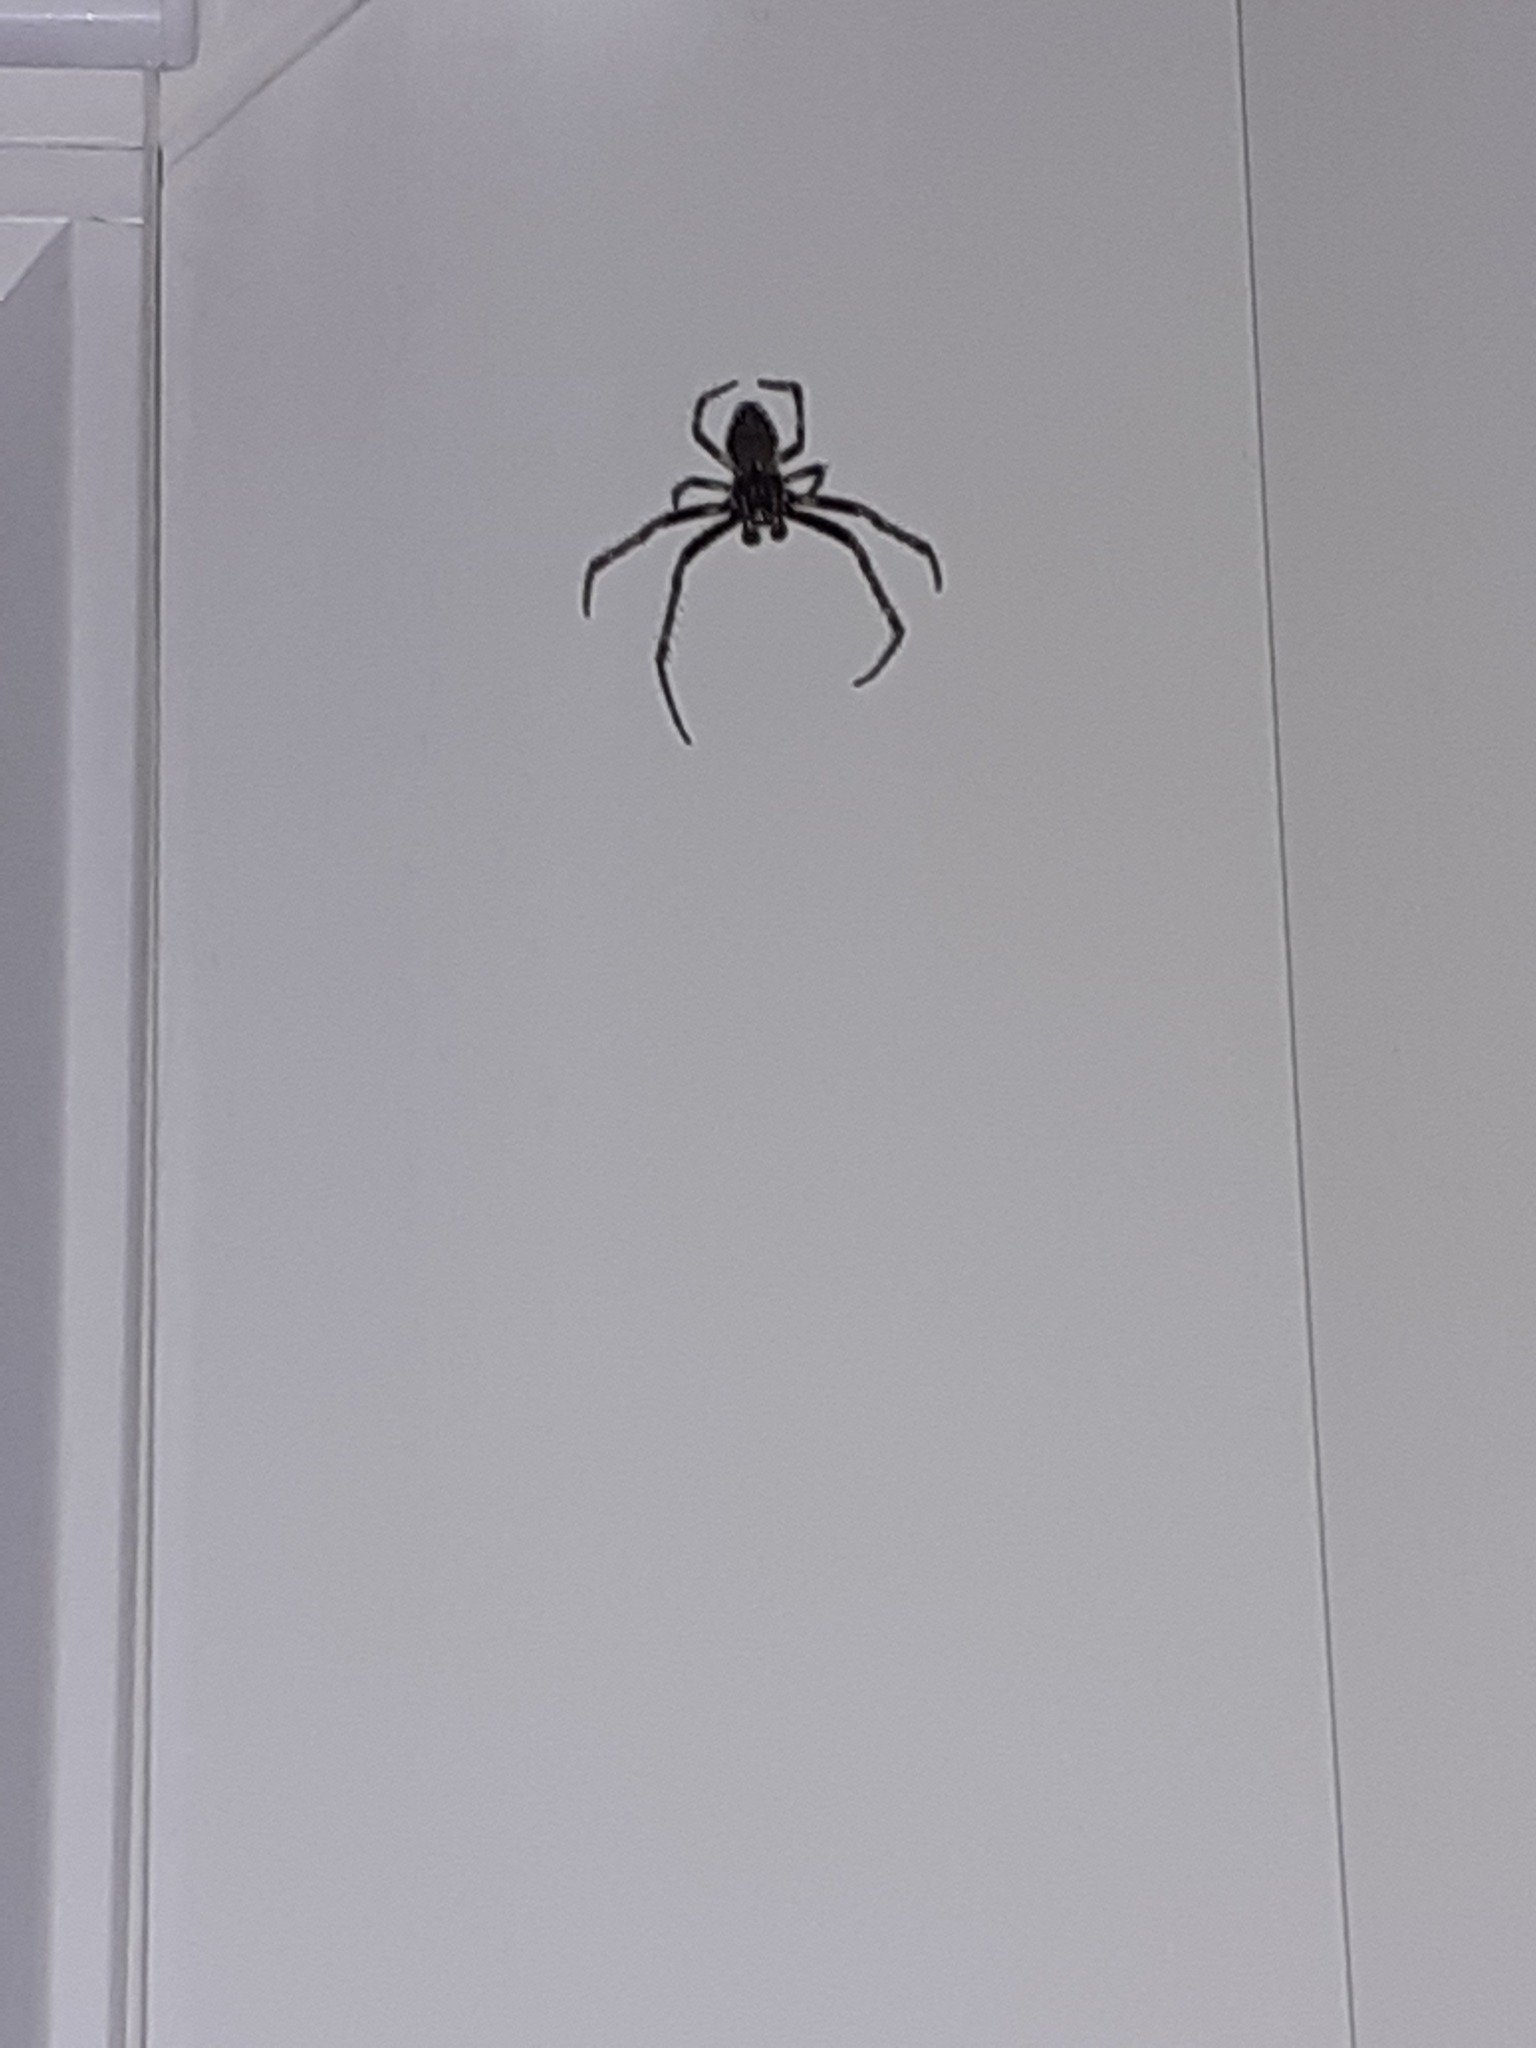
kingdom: Animalia
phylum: Arthropoda
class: Arachnida
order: Araneae
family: Araneidae
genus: Nuctenea
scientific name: Nuctenea umbratica
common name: Toad spider
